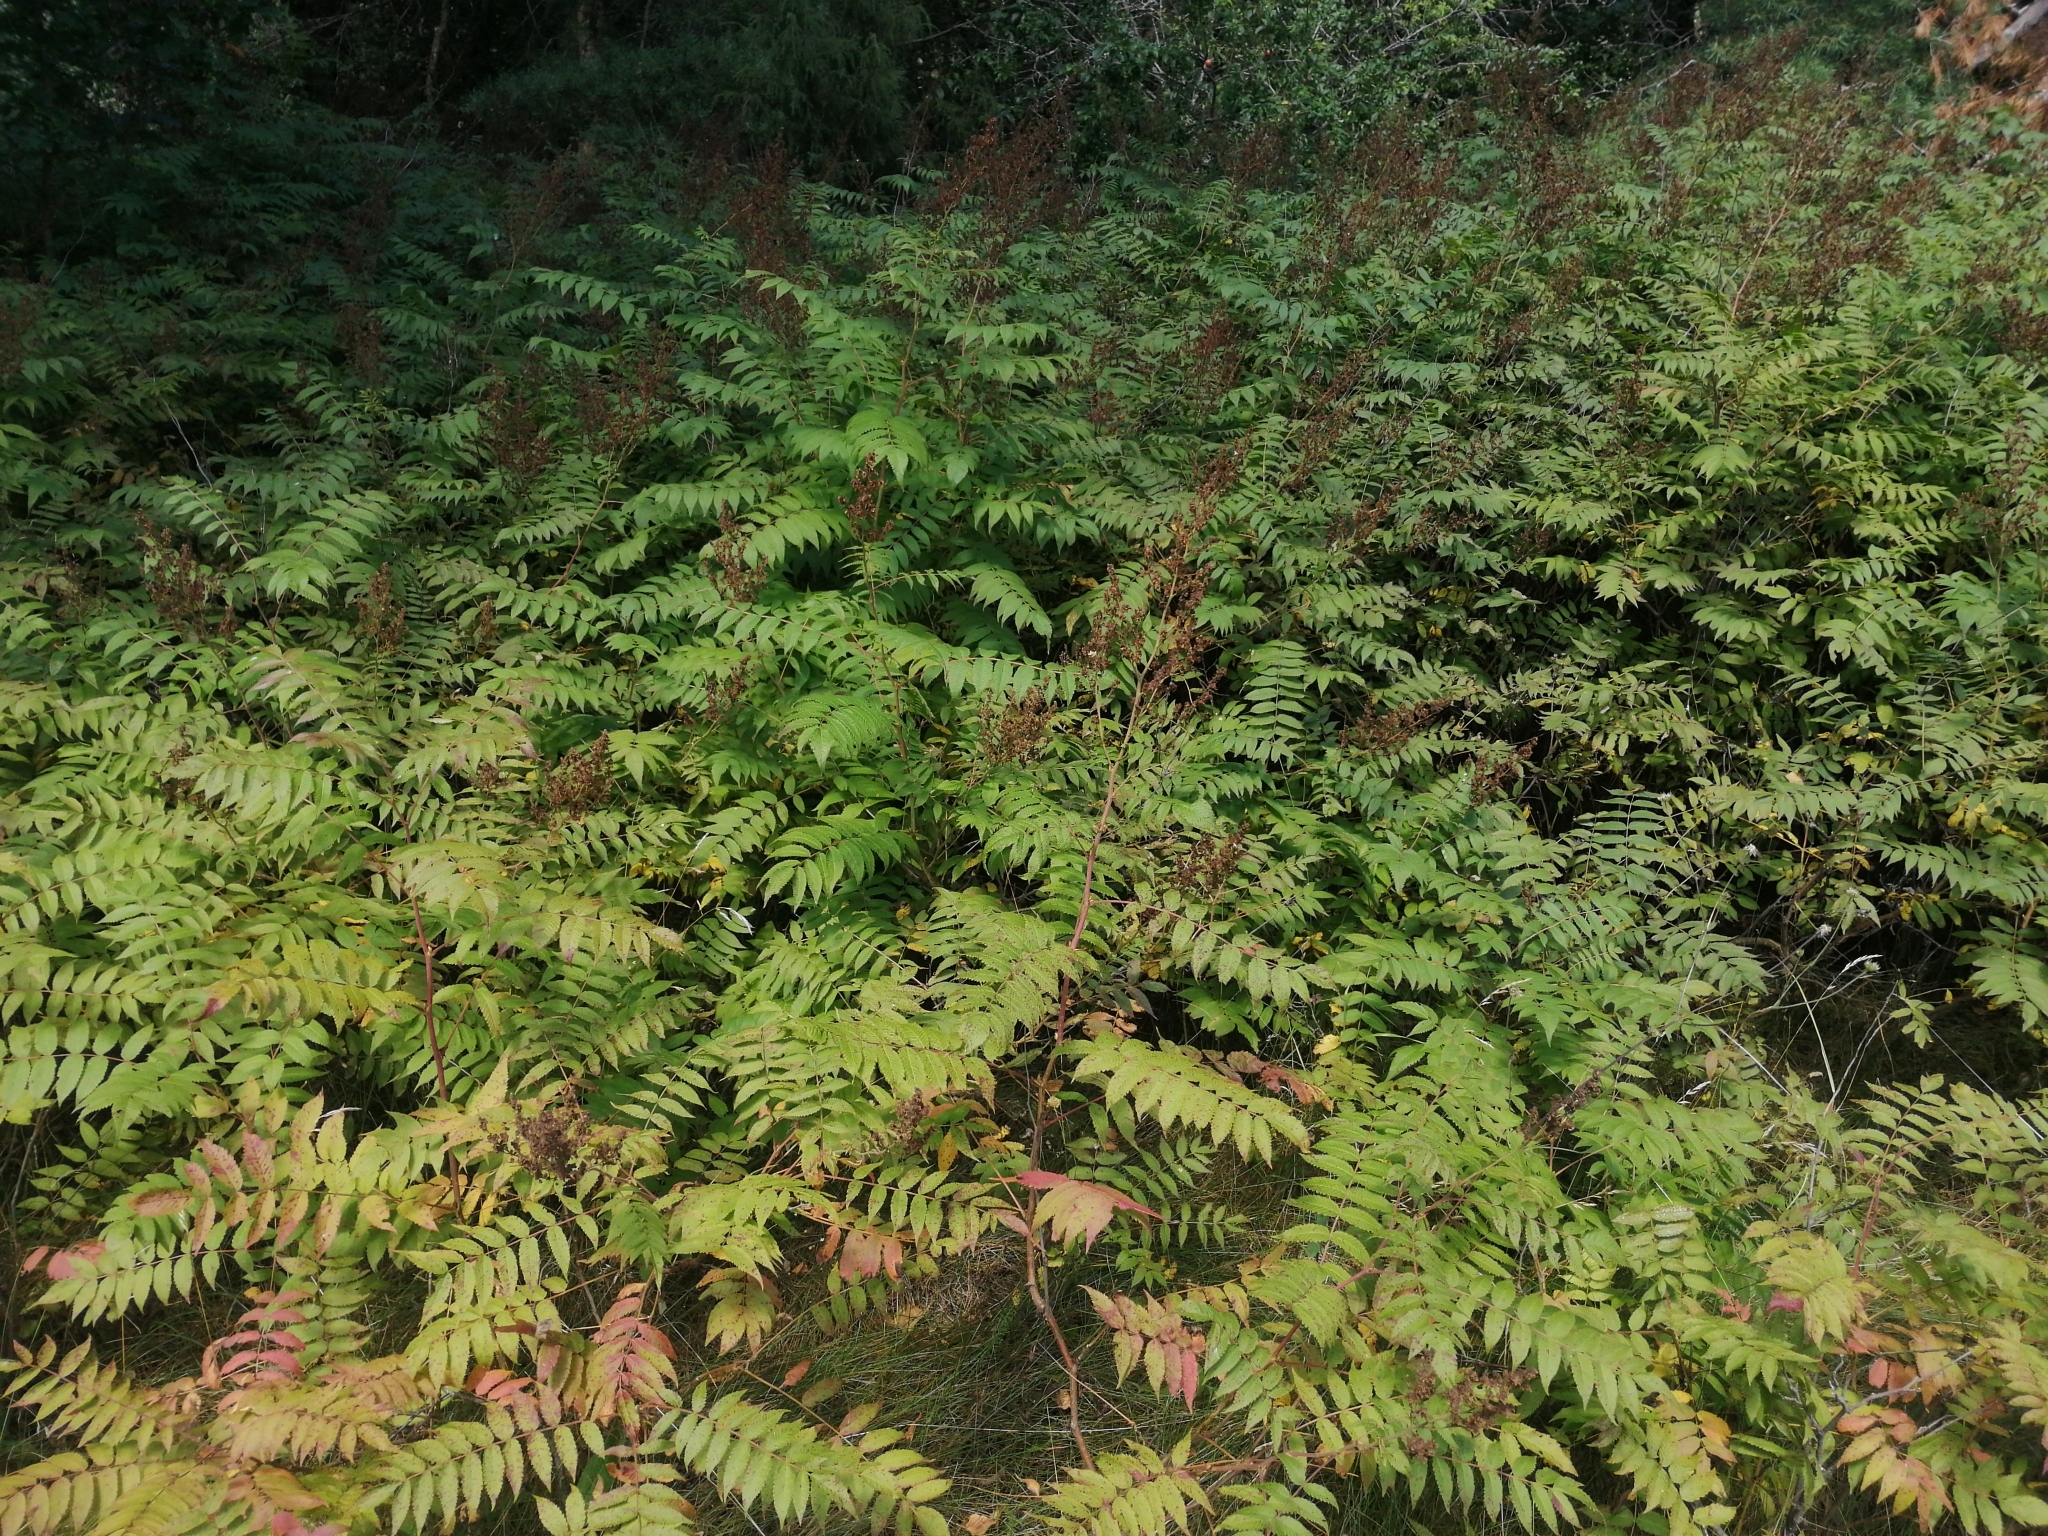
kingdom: Plantae
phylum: Tracheophyta
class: Magnoliopsida
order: Rosales
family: Rosaceae
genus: Sorbaria
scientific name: Sorbaria sorbifolia
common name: False spiraea
